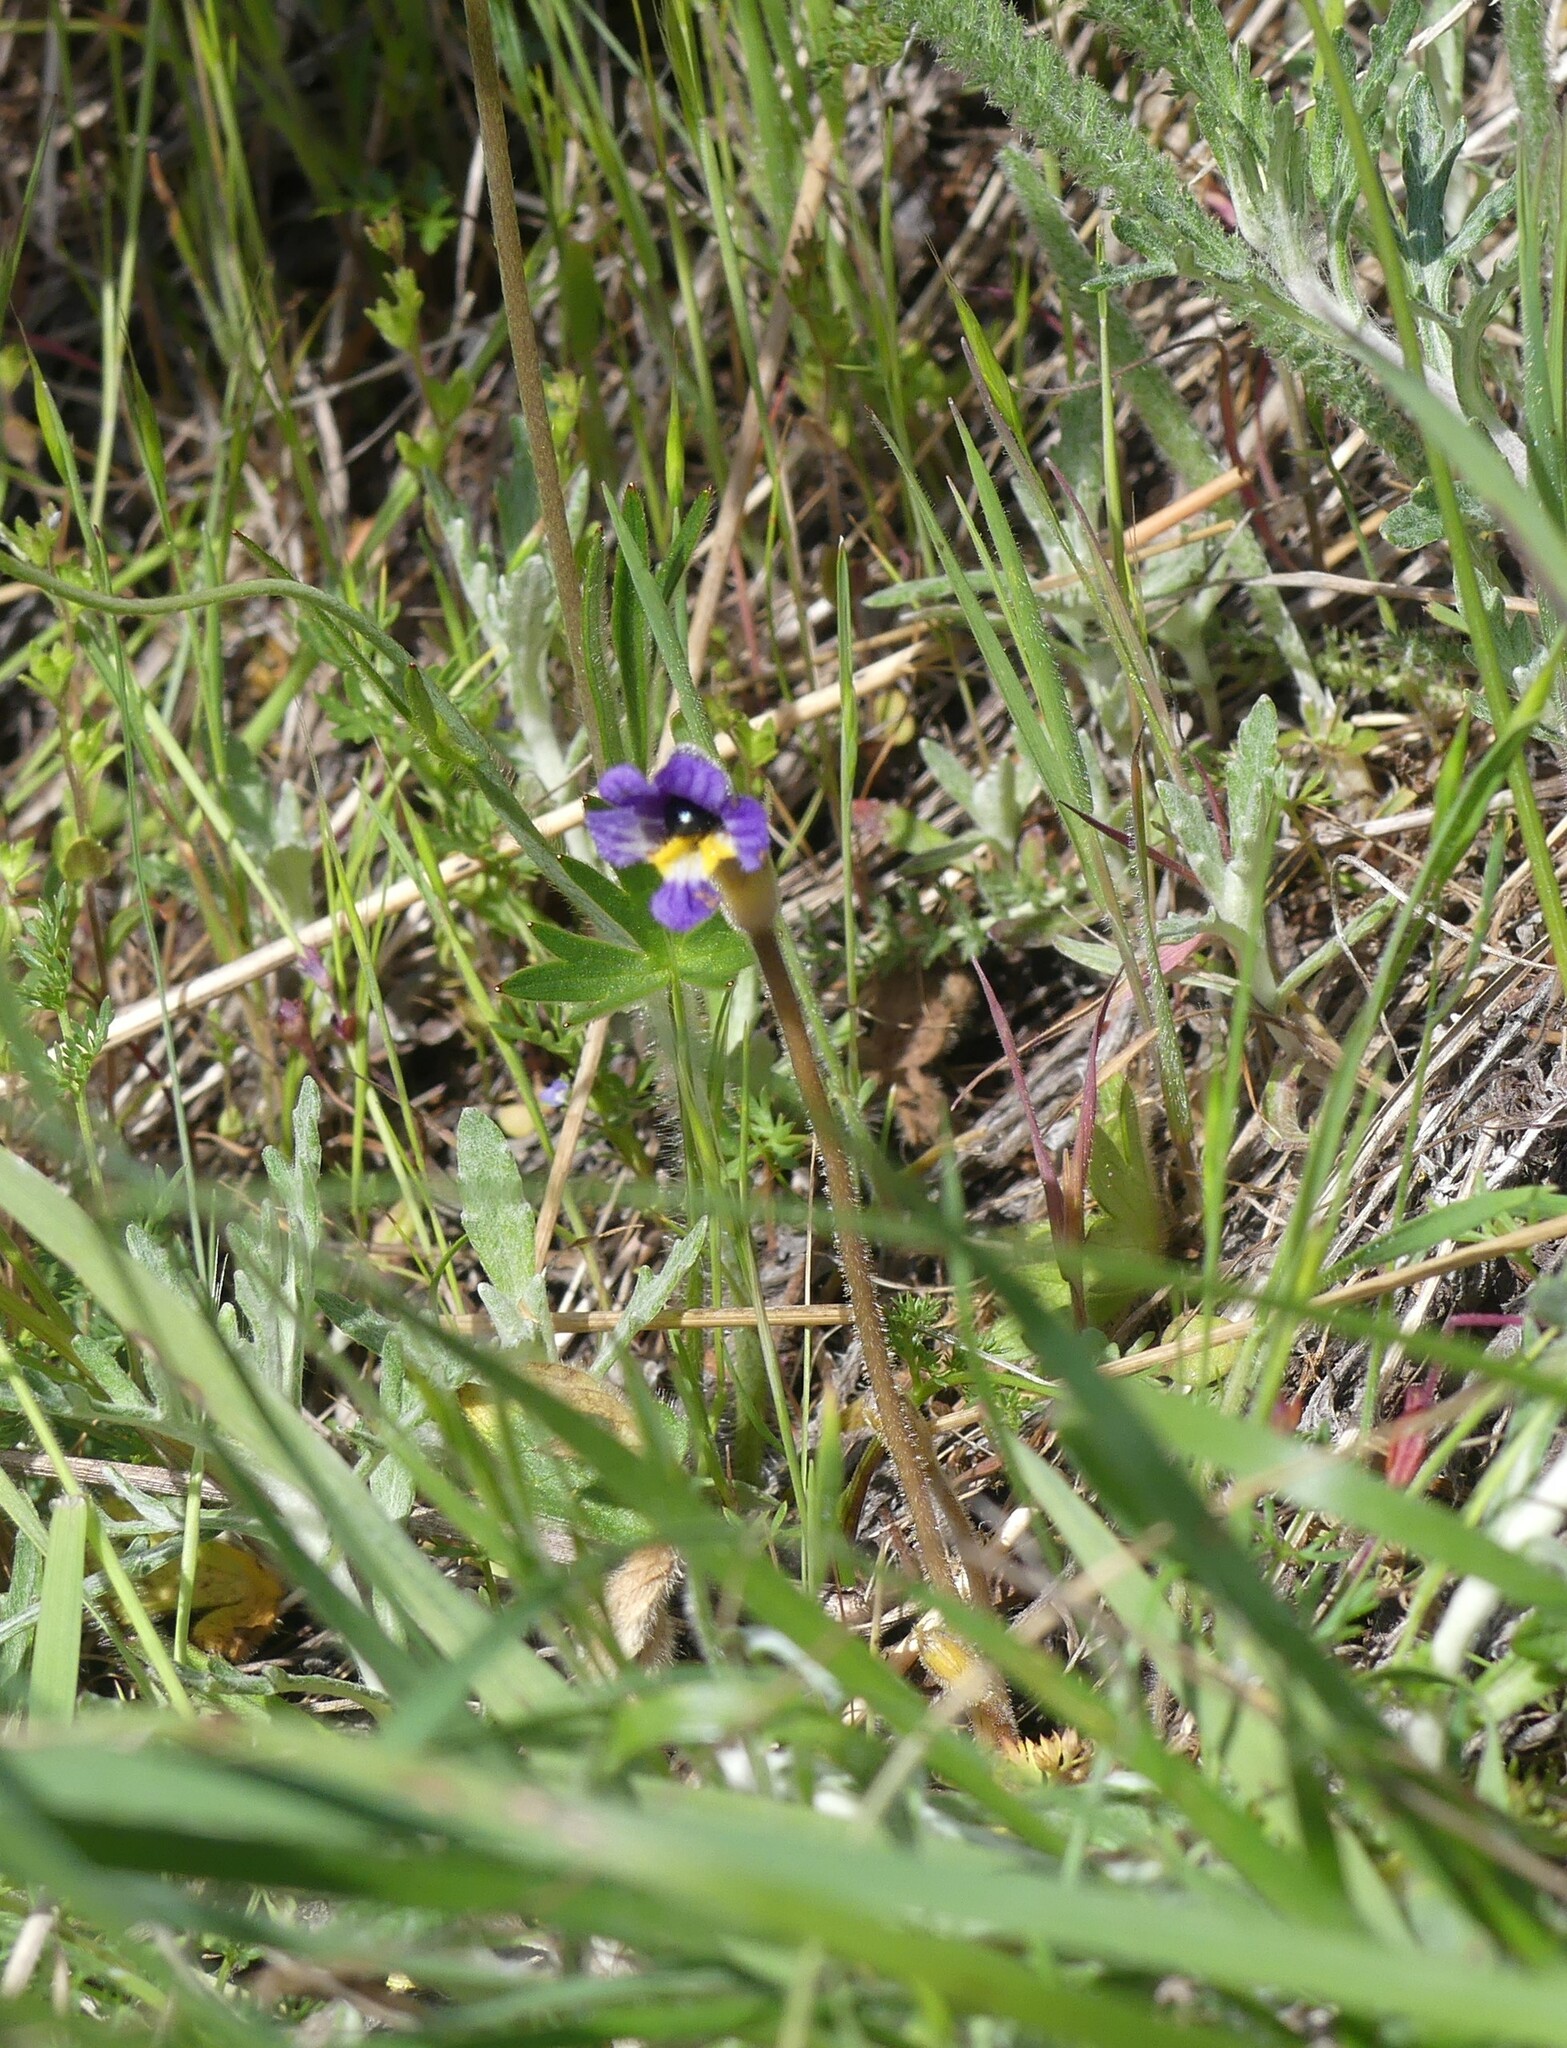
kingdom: Plantae
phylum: Tracheophyta
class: Magnoliopsida
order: Lamiales
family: Orobanchaceae
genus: Aphyllon
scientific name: Aphyllon uniflorum
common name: One-flowered broomrape
